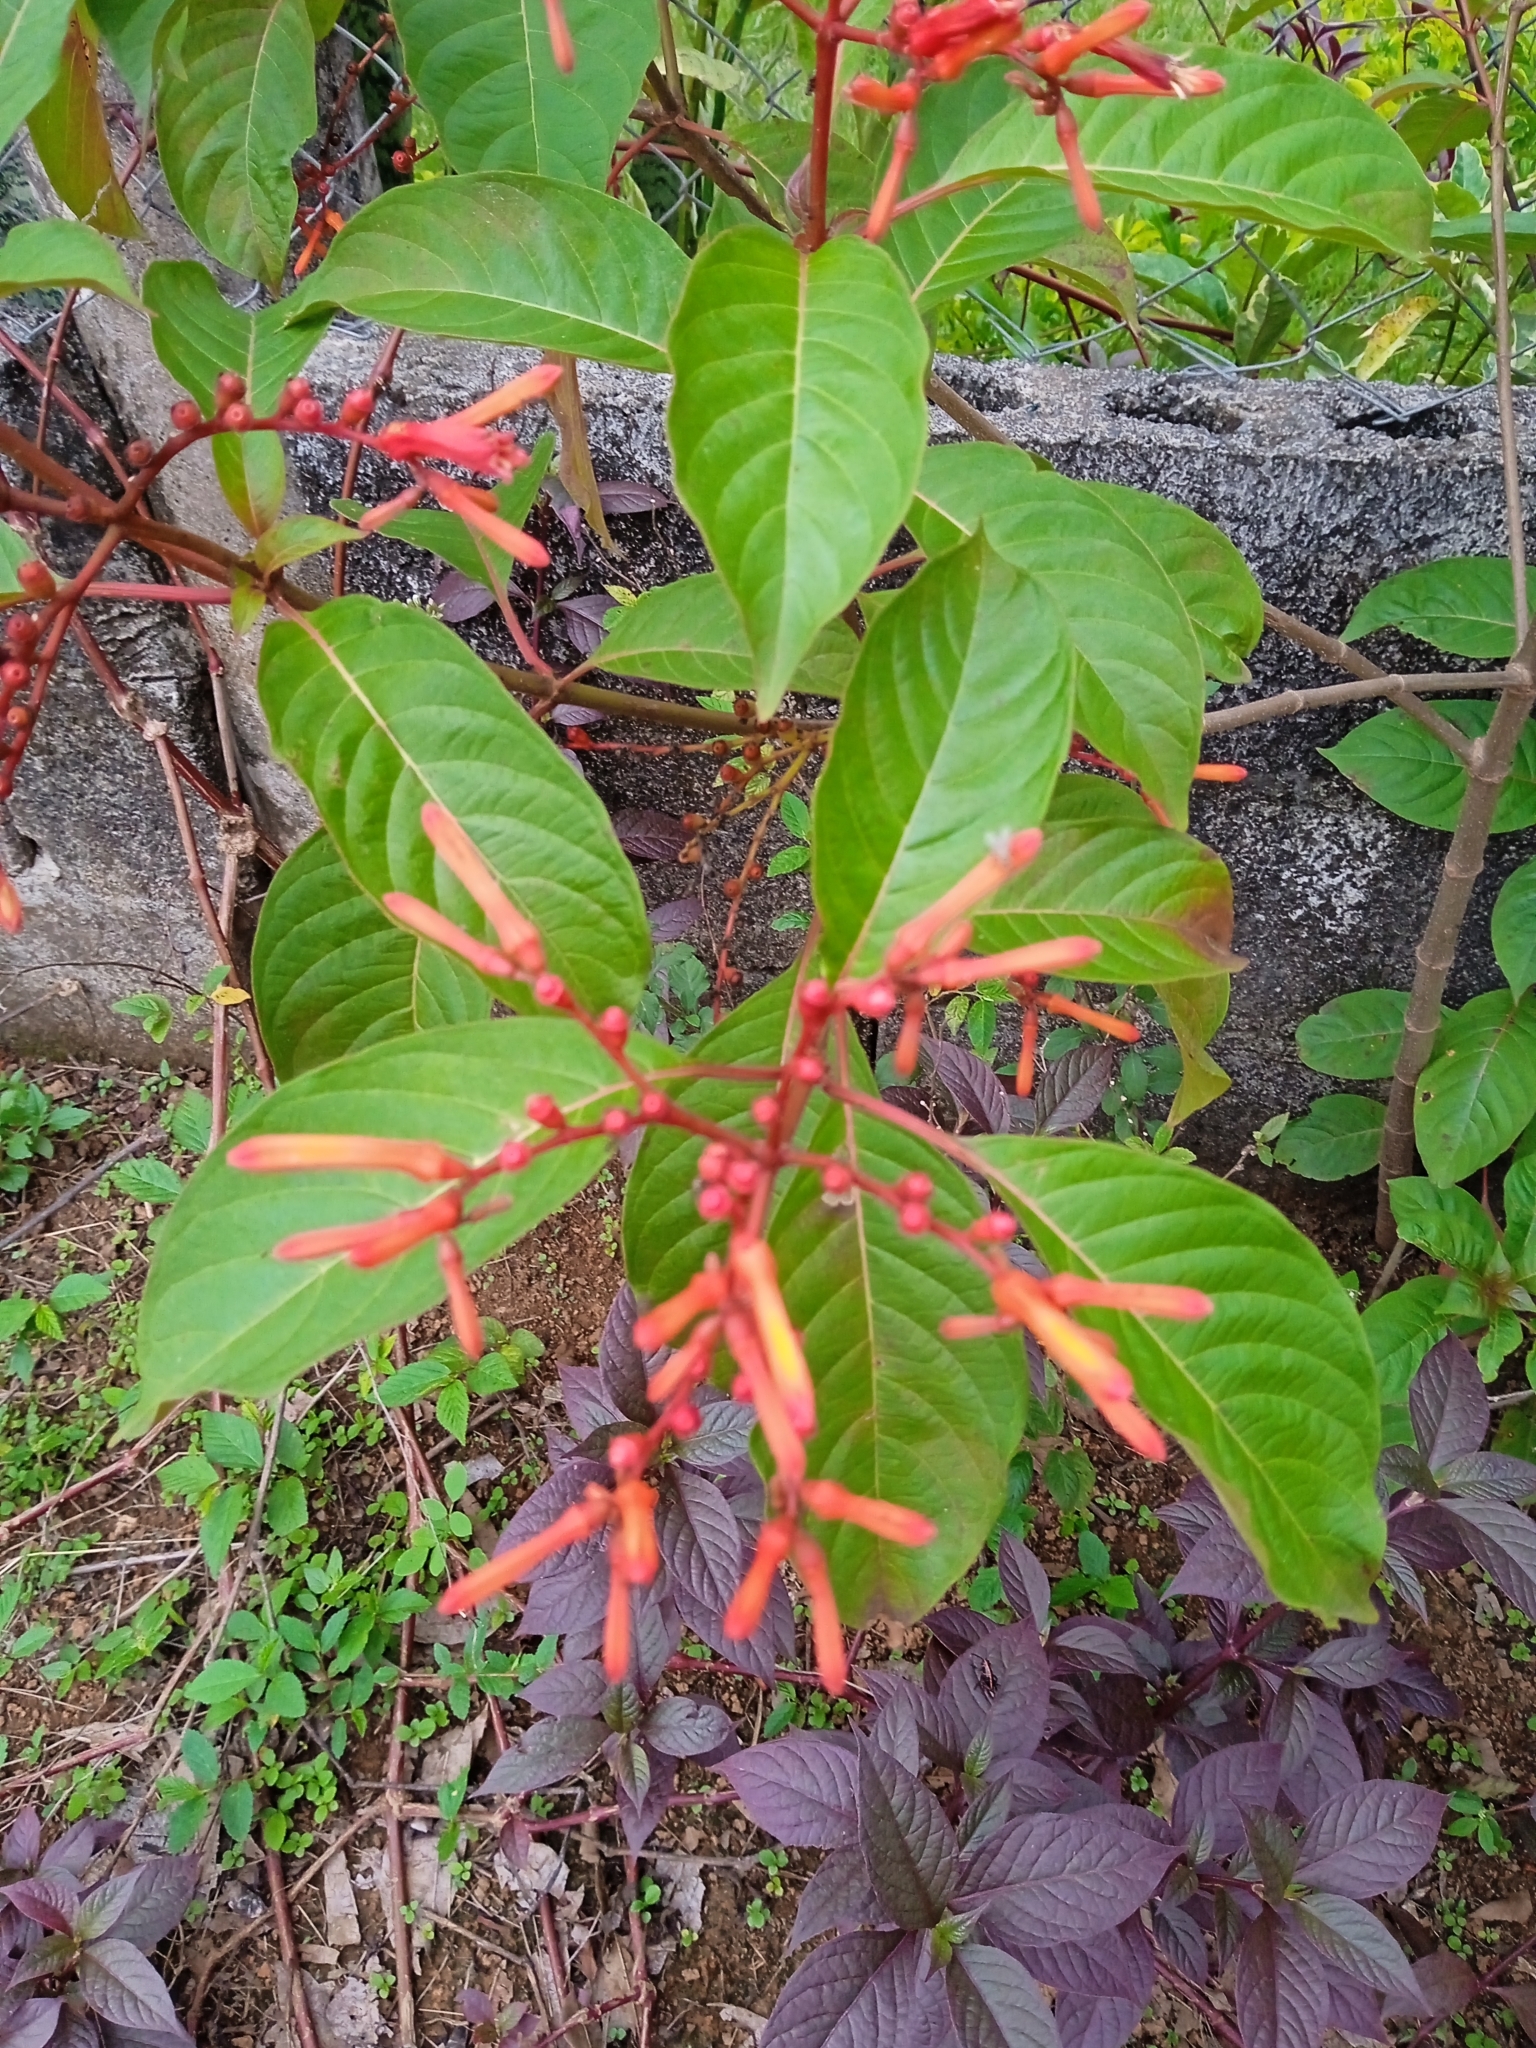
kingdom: Plantae
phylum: Tracheophyta
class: Magnoliopsida
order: Gentianales
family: Rubiaceae
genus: Hamelia
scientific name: Hamelia patens
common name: Redhead
